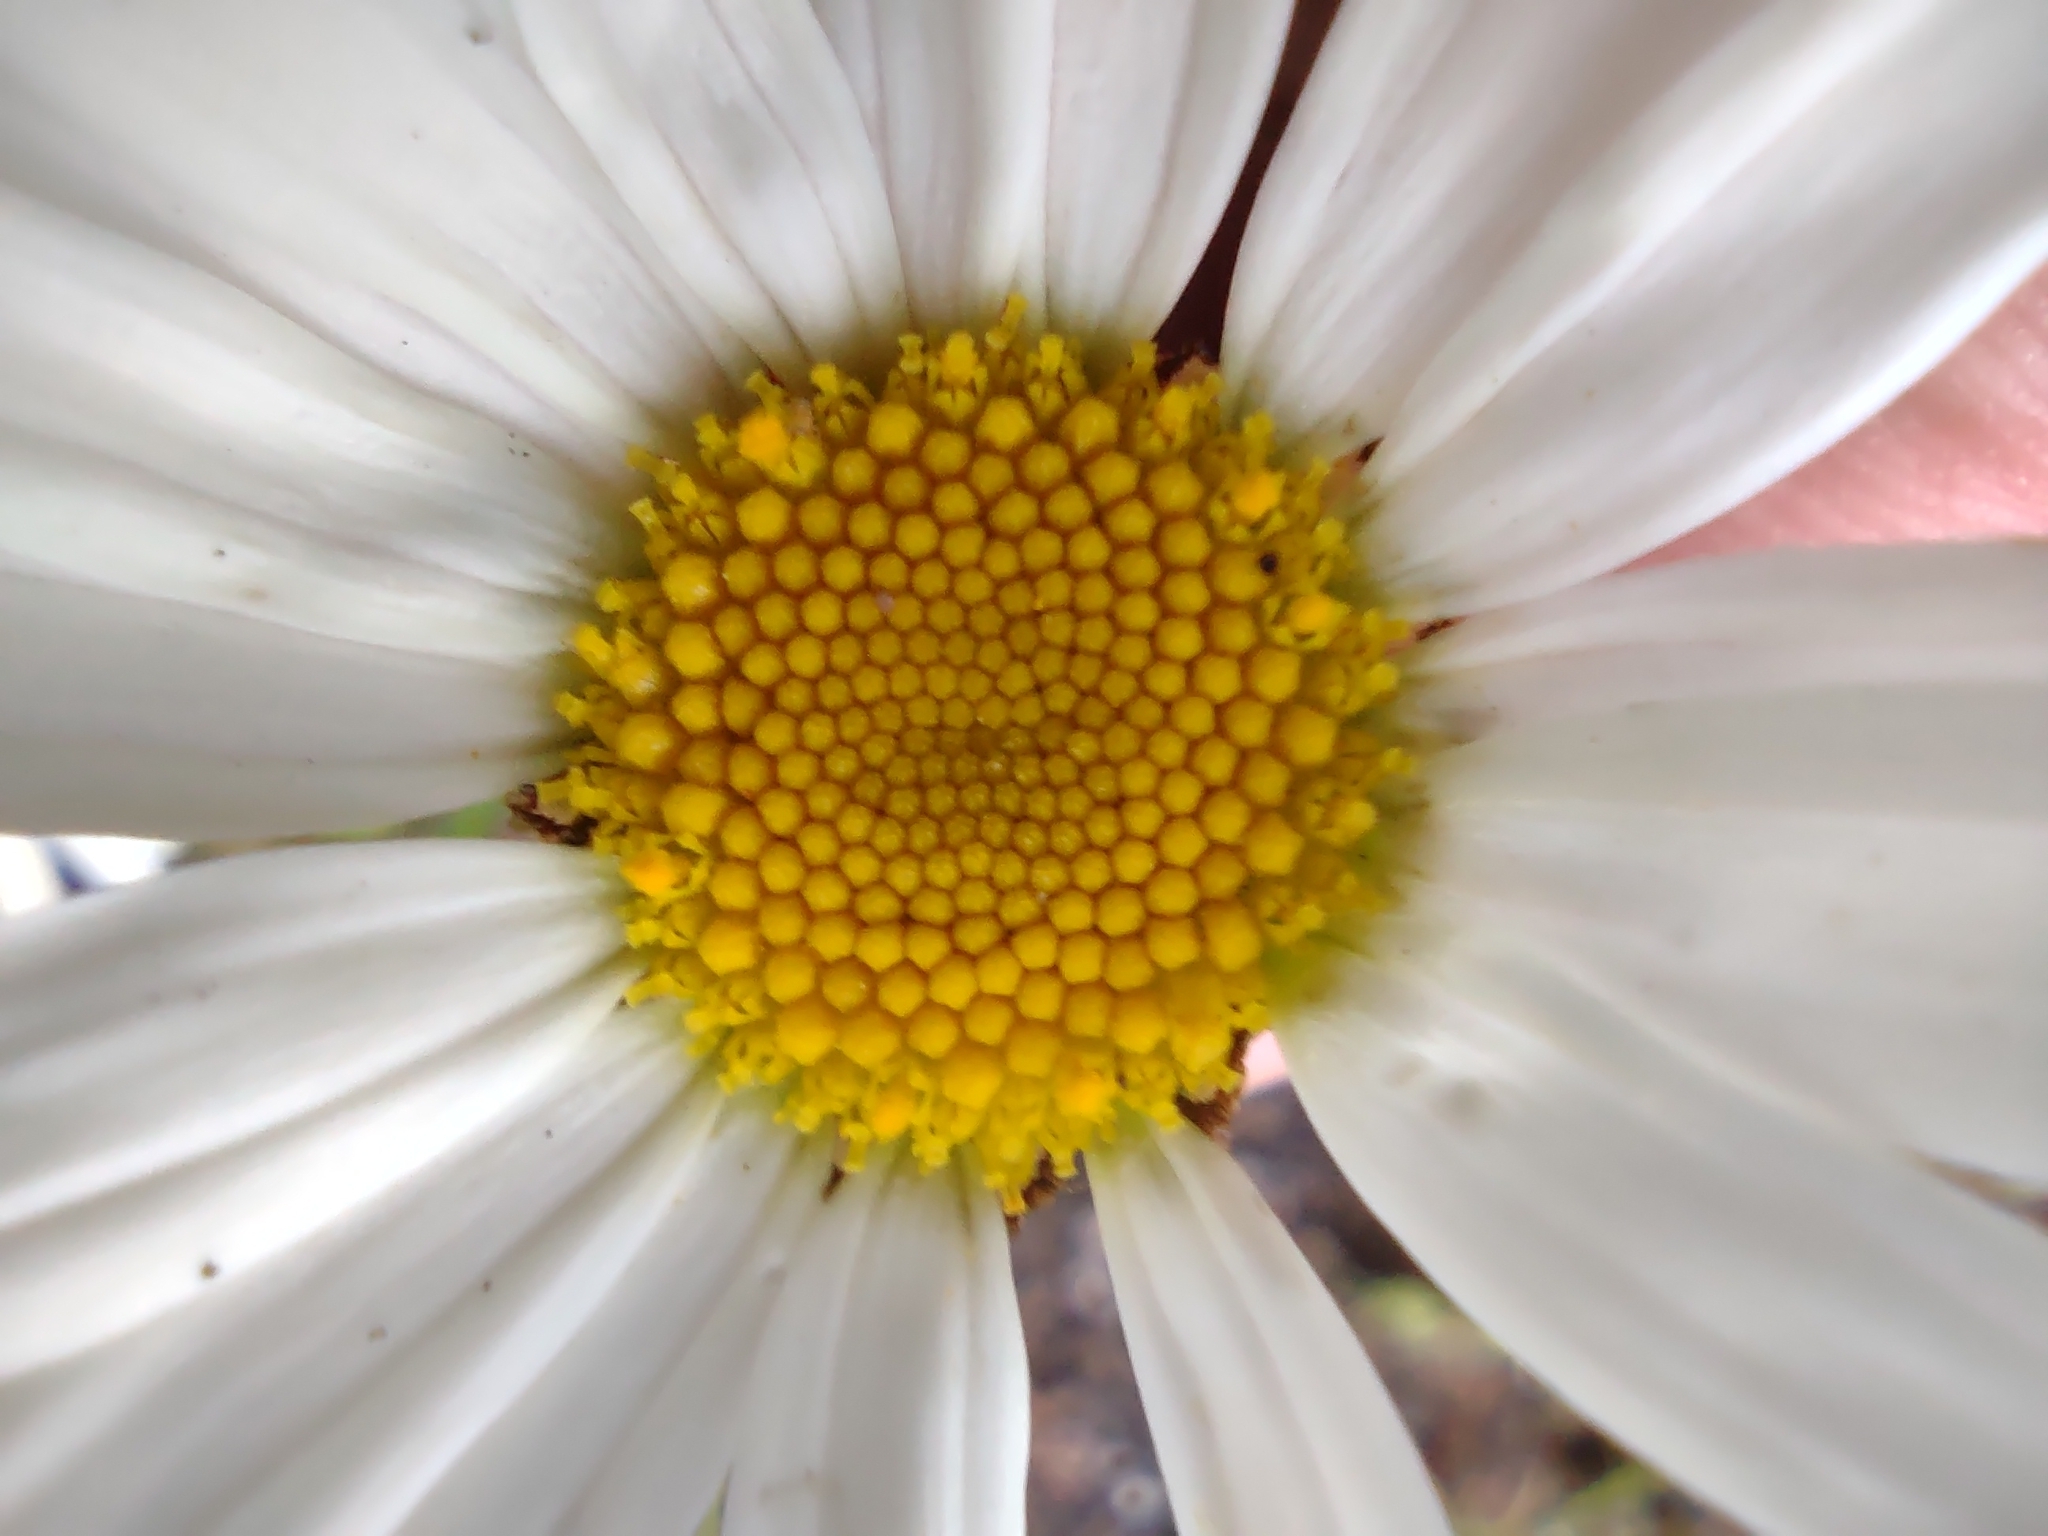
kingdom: Plantae
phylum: Tracheophyta
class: Magnoliopsida
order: Asterales
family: Asteraceae
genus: Leucanthemum
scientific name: Leucanthemum vulgare
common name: Oxeye daisy
